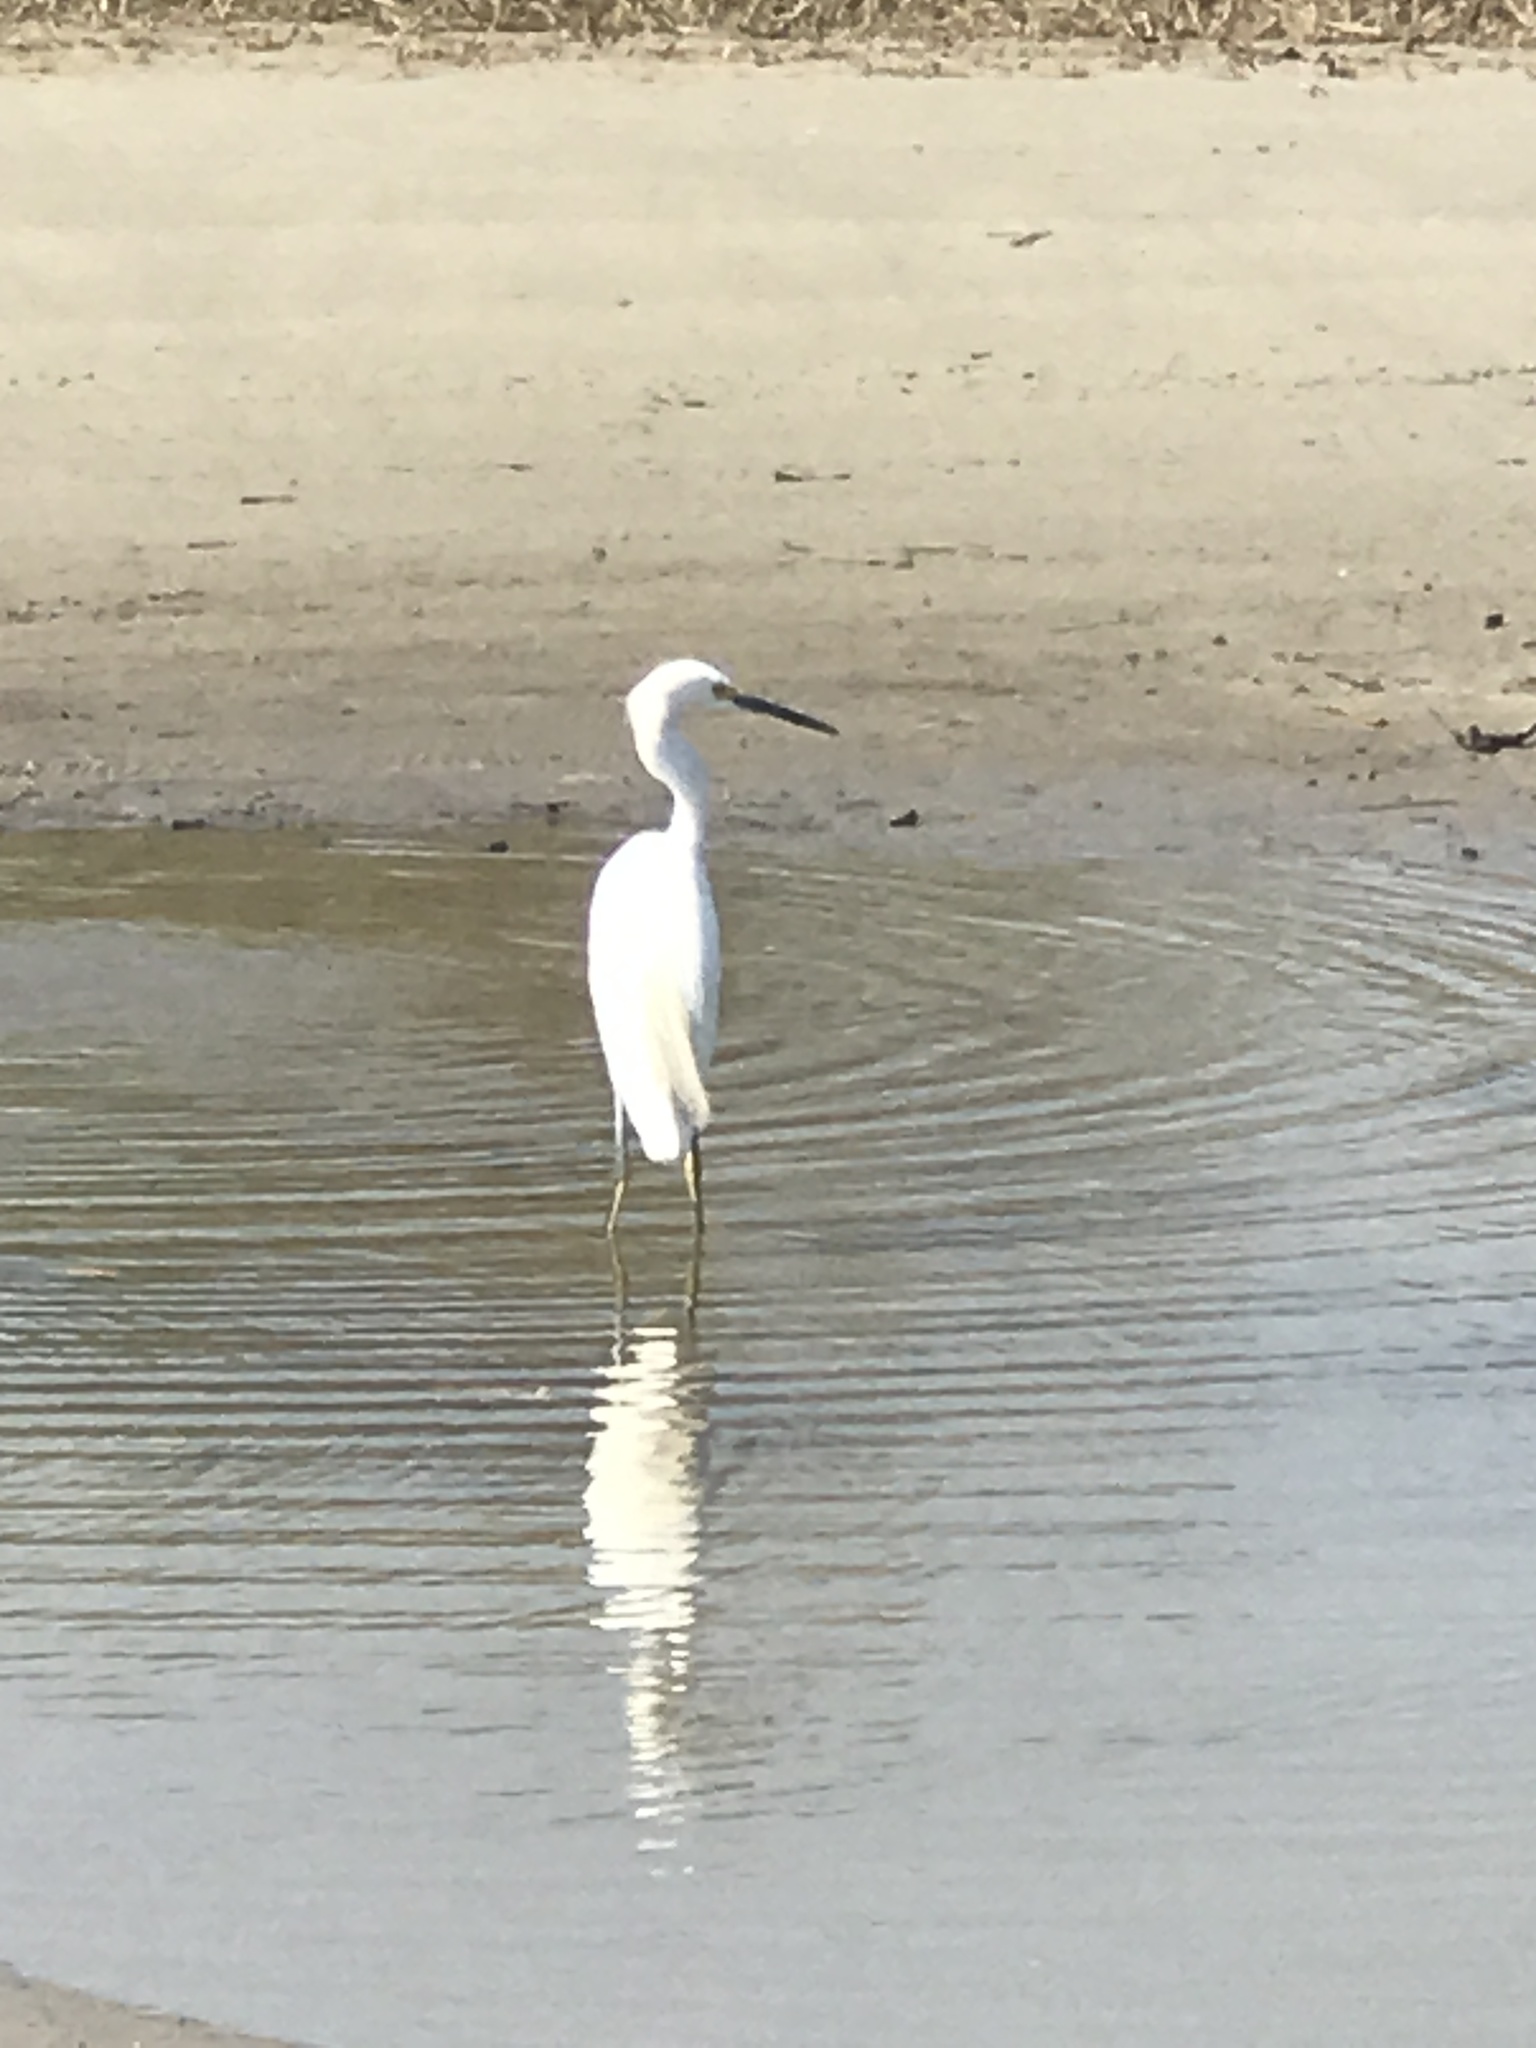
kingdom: Animalia
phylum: Chordata
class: Aves
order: Pelecaniformes
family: Ardeidae
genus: Egretta
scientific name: Egretta thula
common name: Snowy egret
